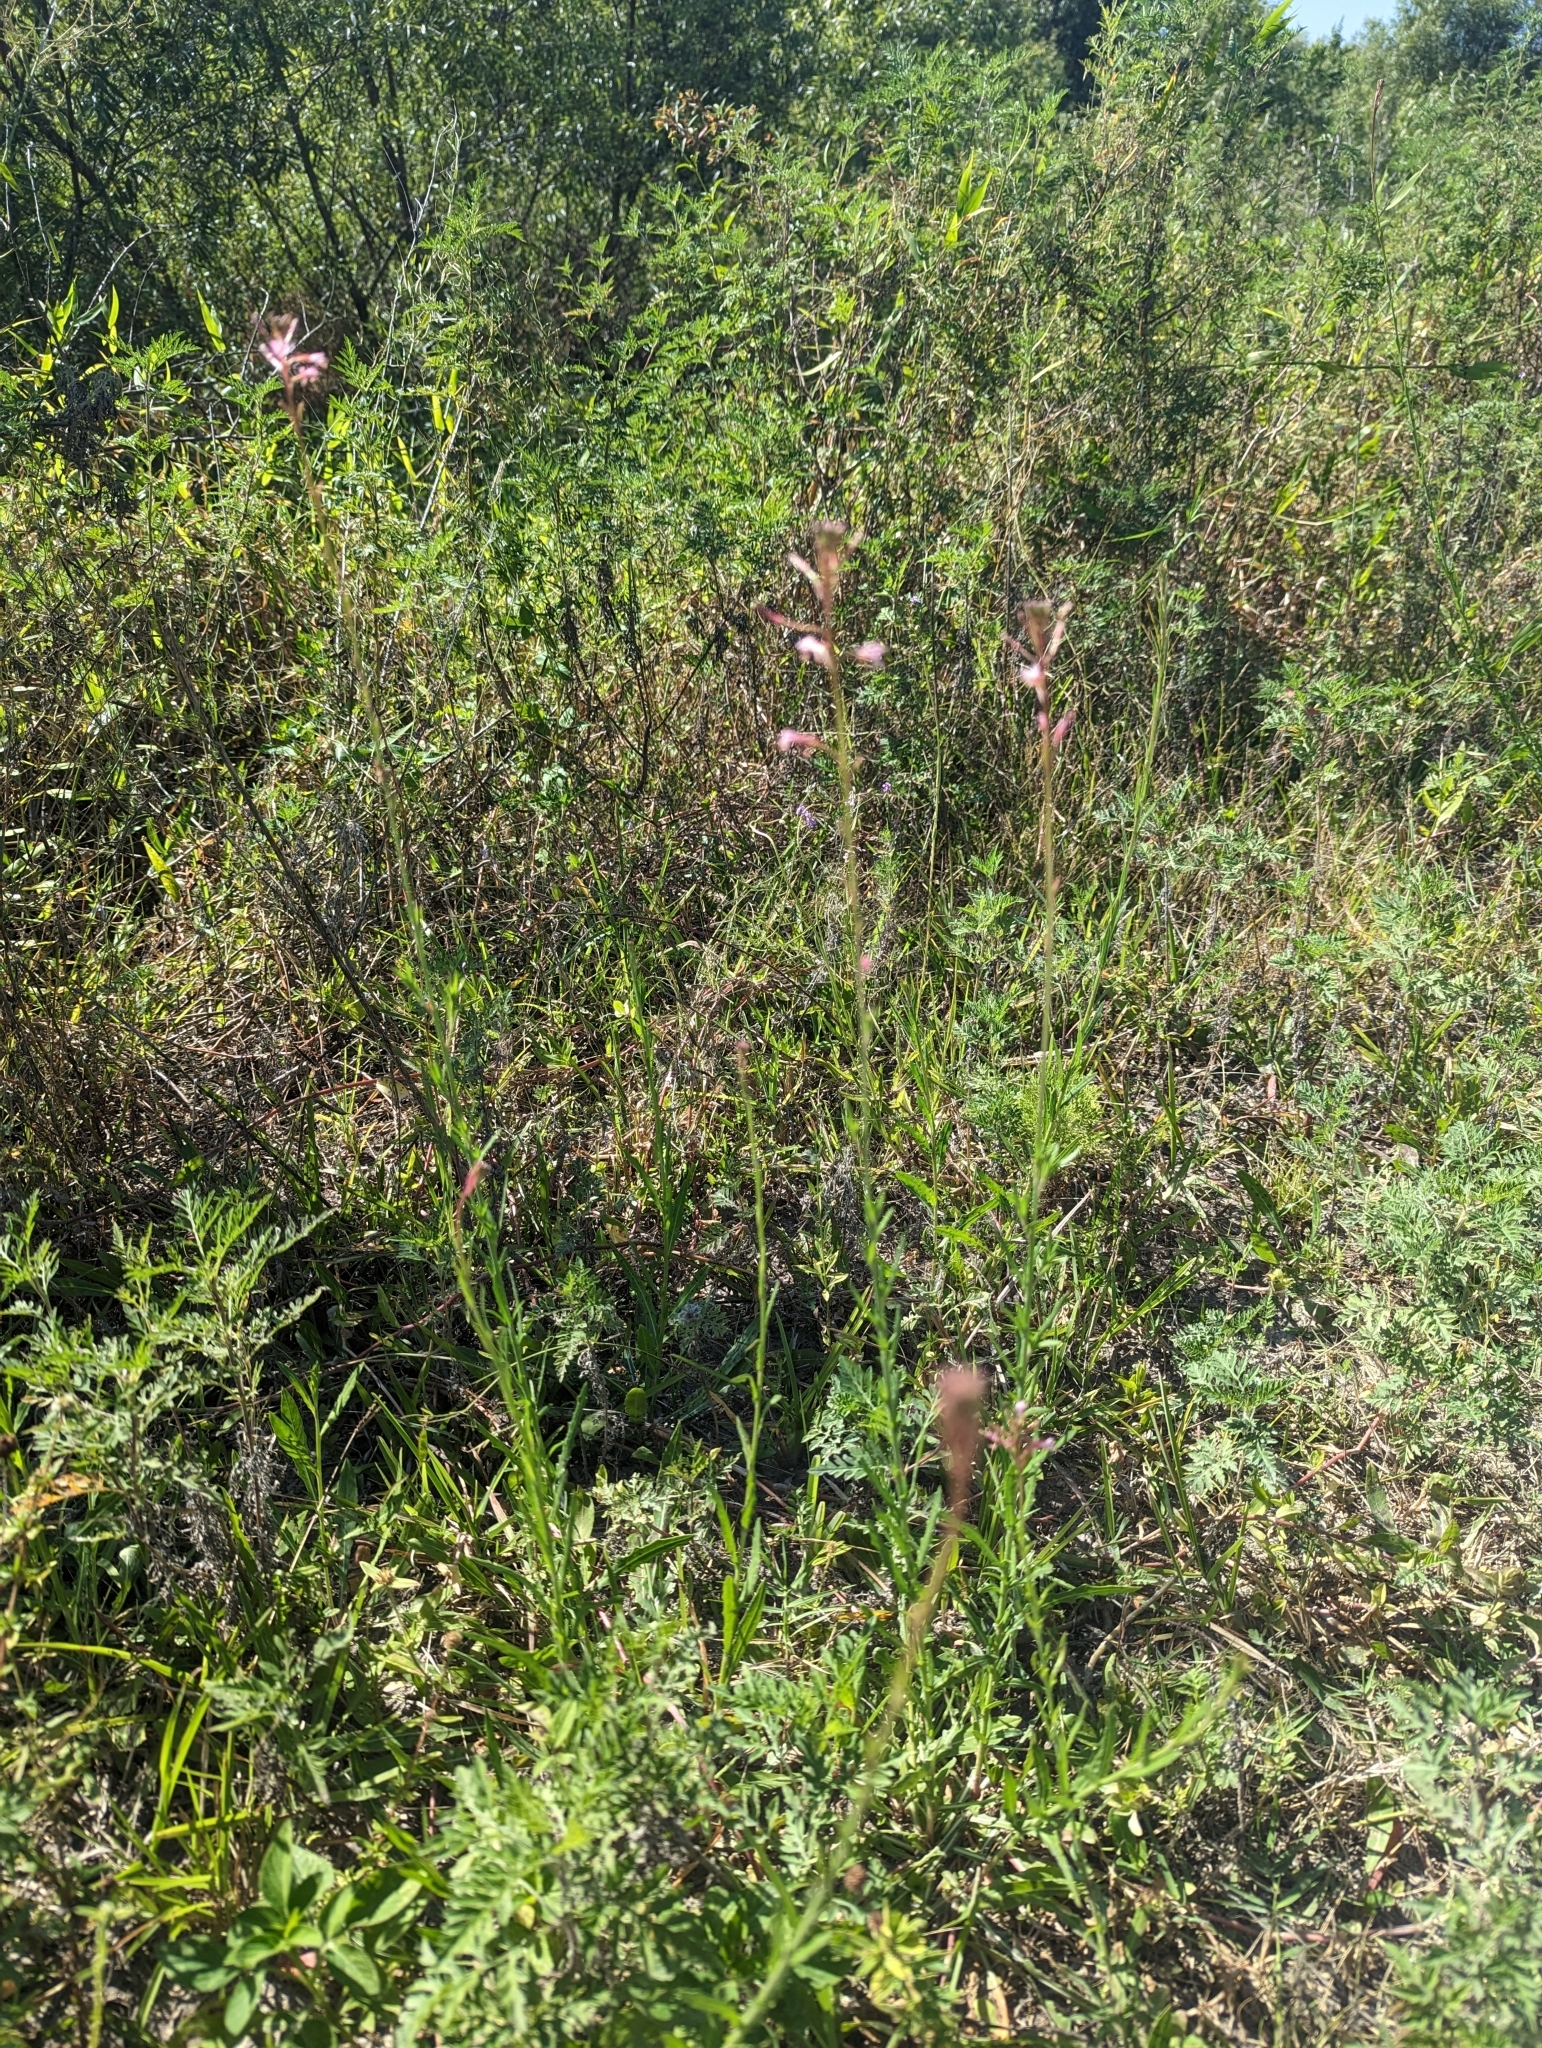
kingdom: Plantae
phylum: Tracheophyta
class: Magnoliopsida
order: Myrtales
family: Onagraceae
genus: Oenothera
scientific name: Oenothera simulans
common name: Southern beeblossom
